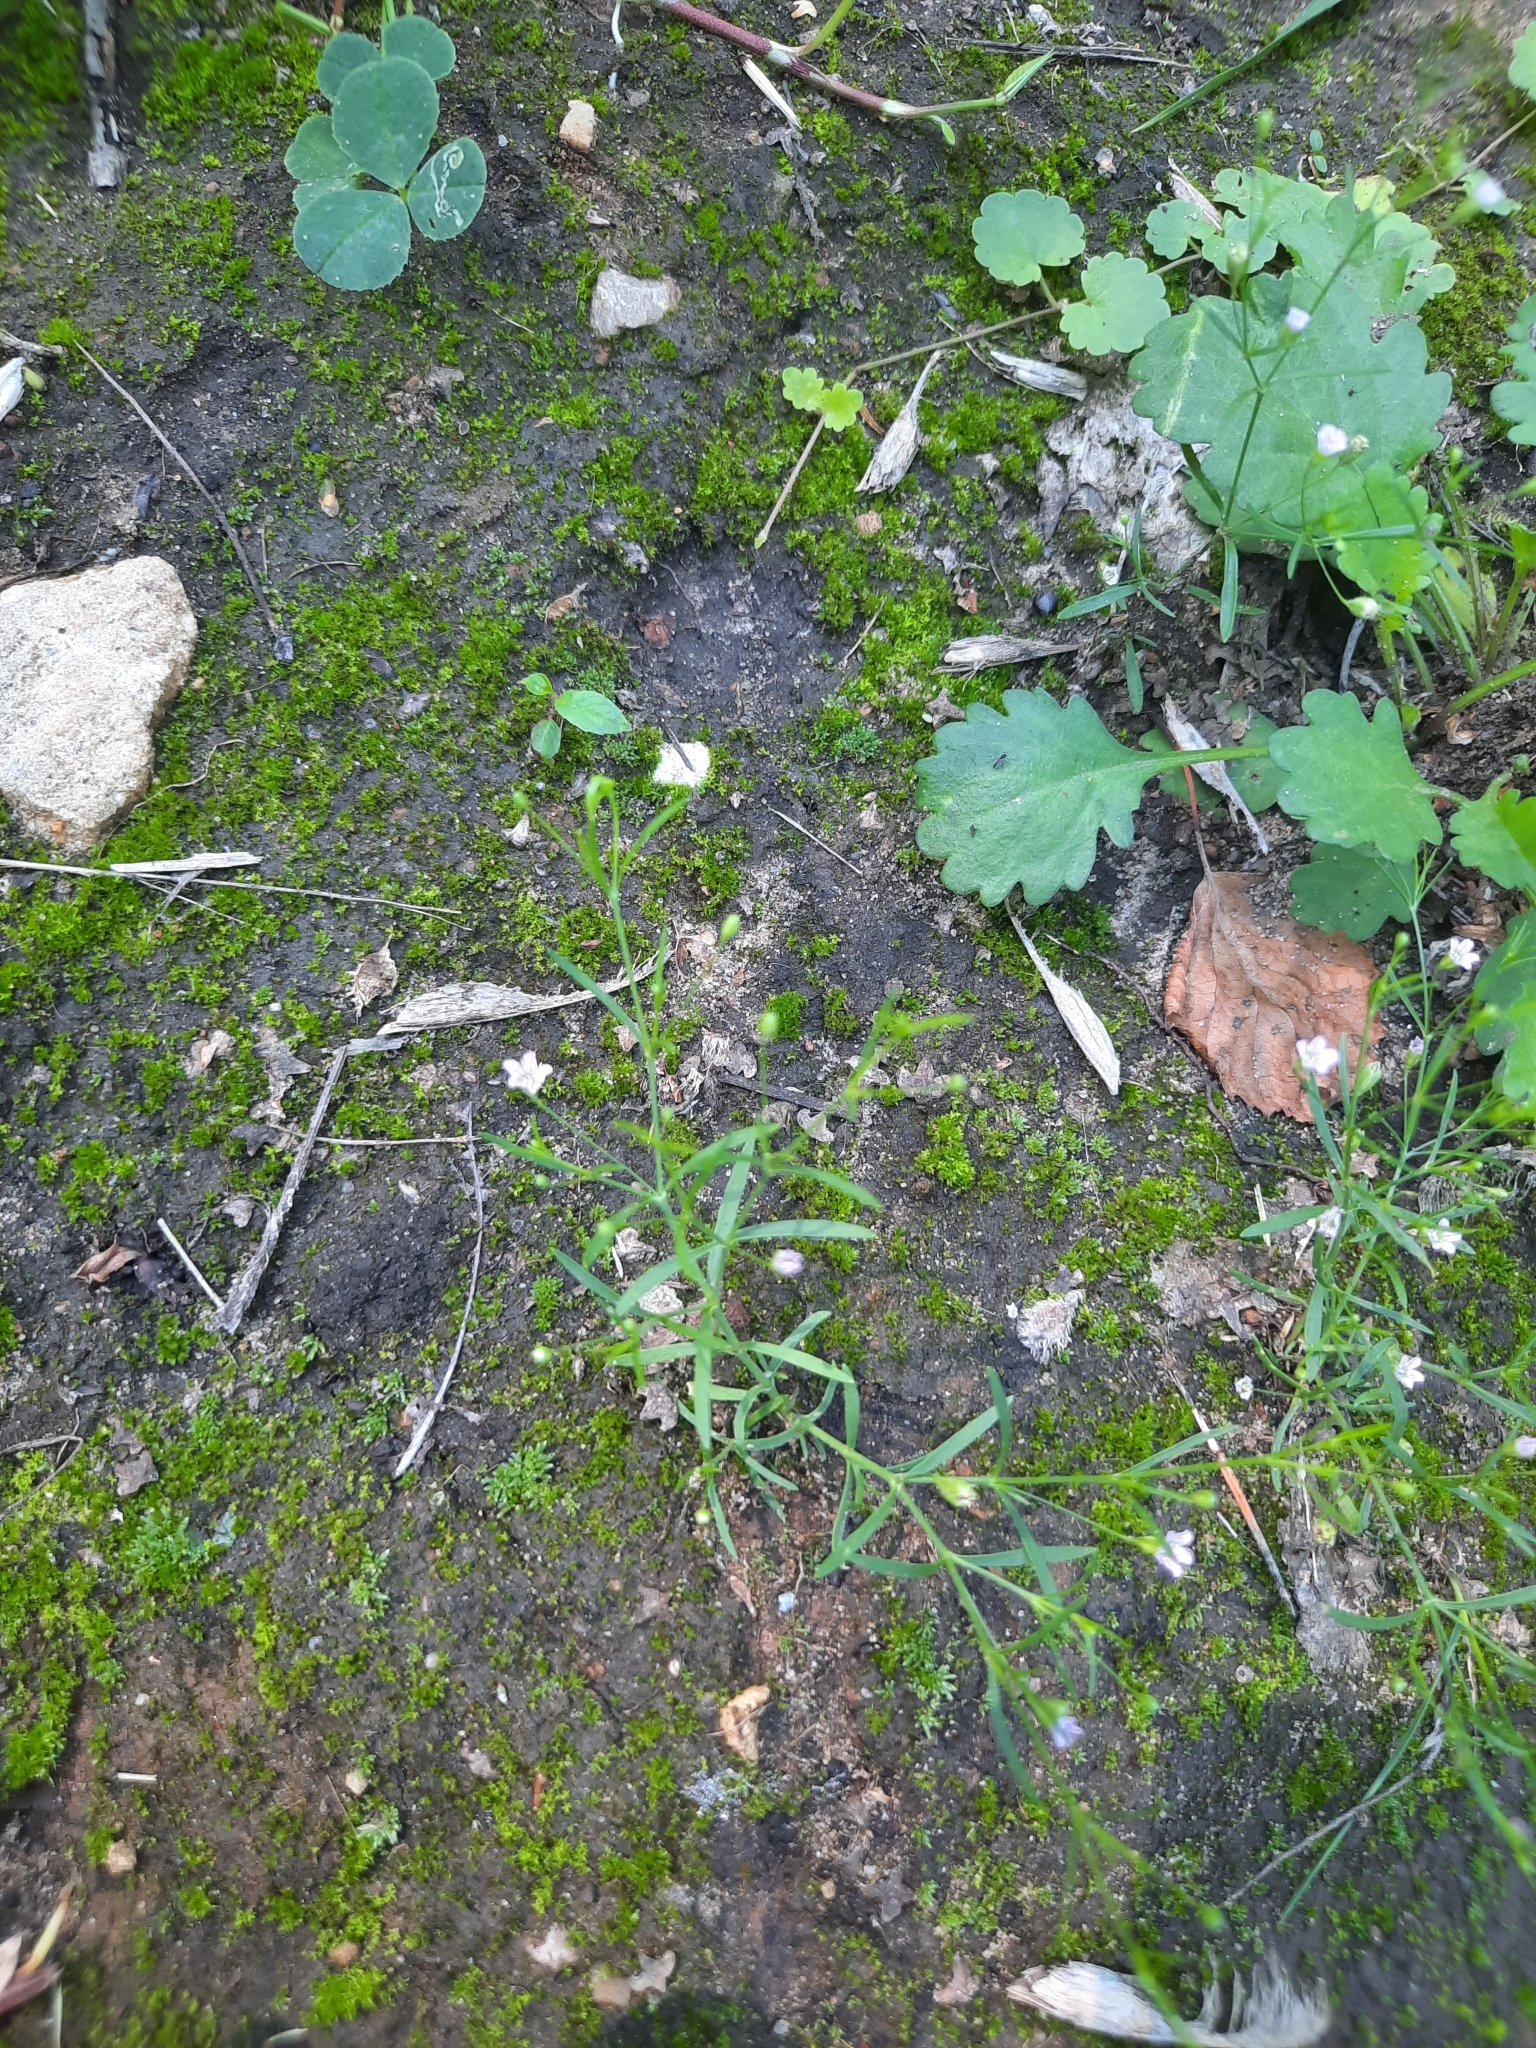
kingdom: Plantae
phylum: Tracheophyta
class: Magnoliopsida
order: Caryophyllales
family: Caryophyllaceae
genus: Psammophiliella
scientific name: Psammophiliella muralis
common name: Cushion baby's-breath
